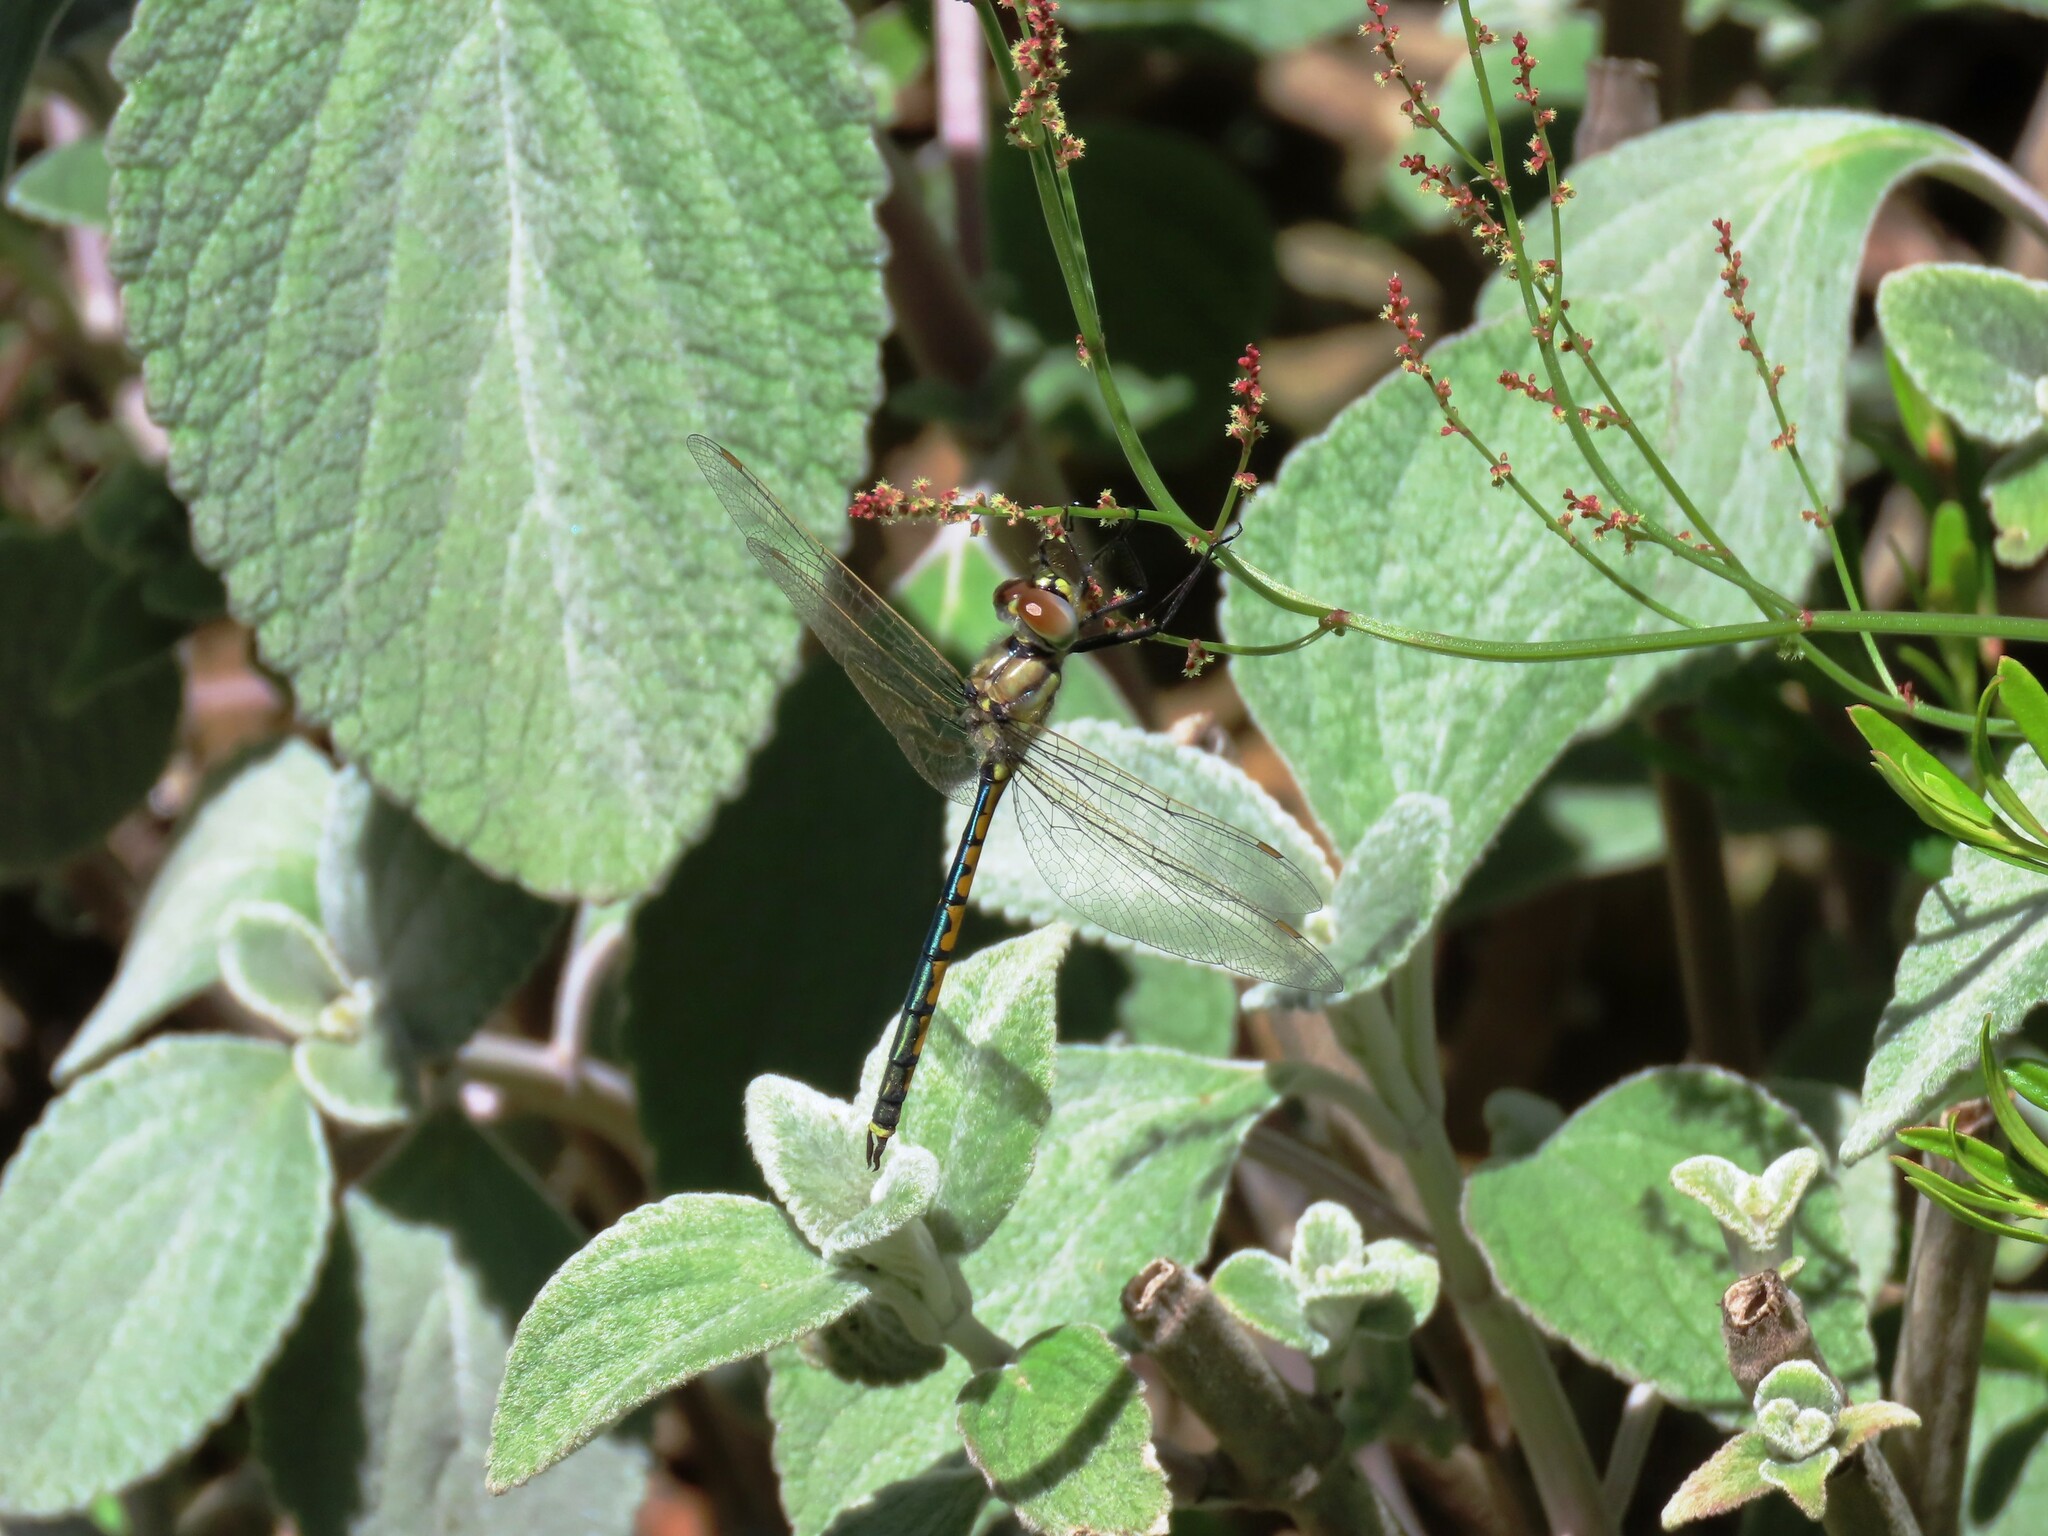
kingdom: Animalia
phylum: Arthropoda
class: Insecta
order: Odonata
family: Corduliidae
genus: Hemicordulia
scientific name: Hemicordulia tau
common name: Tau emerald
